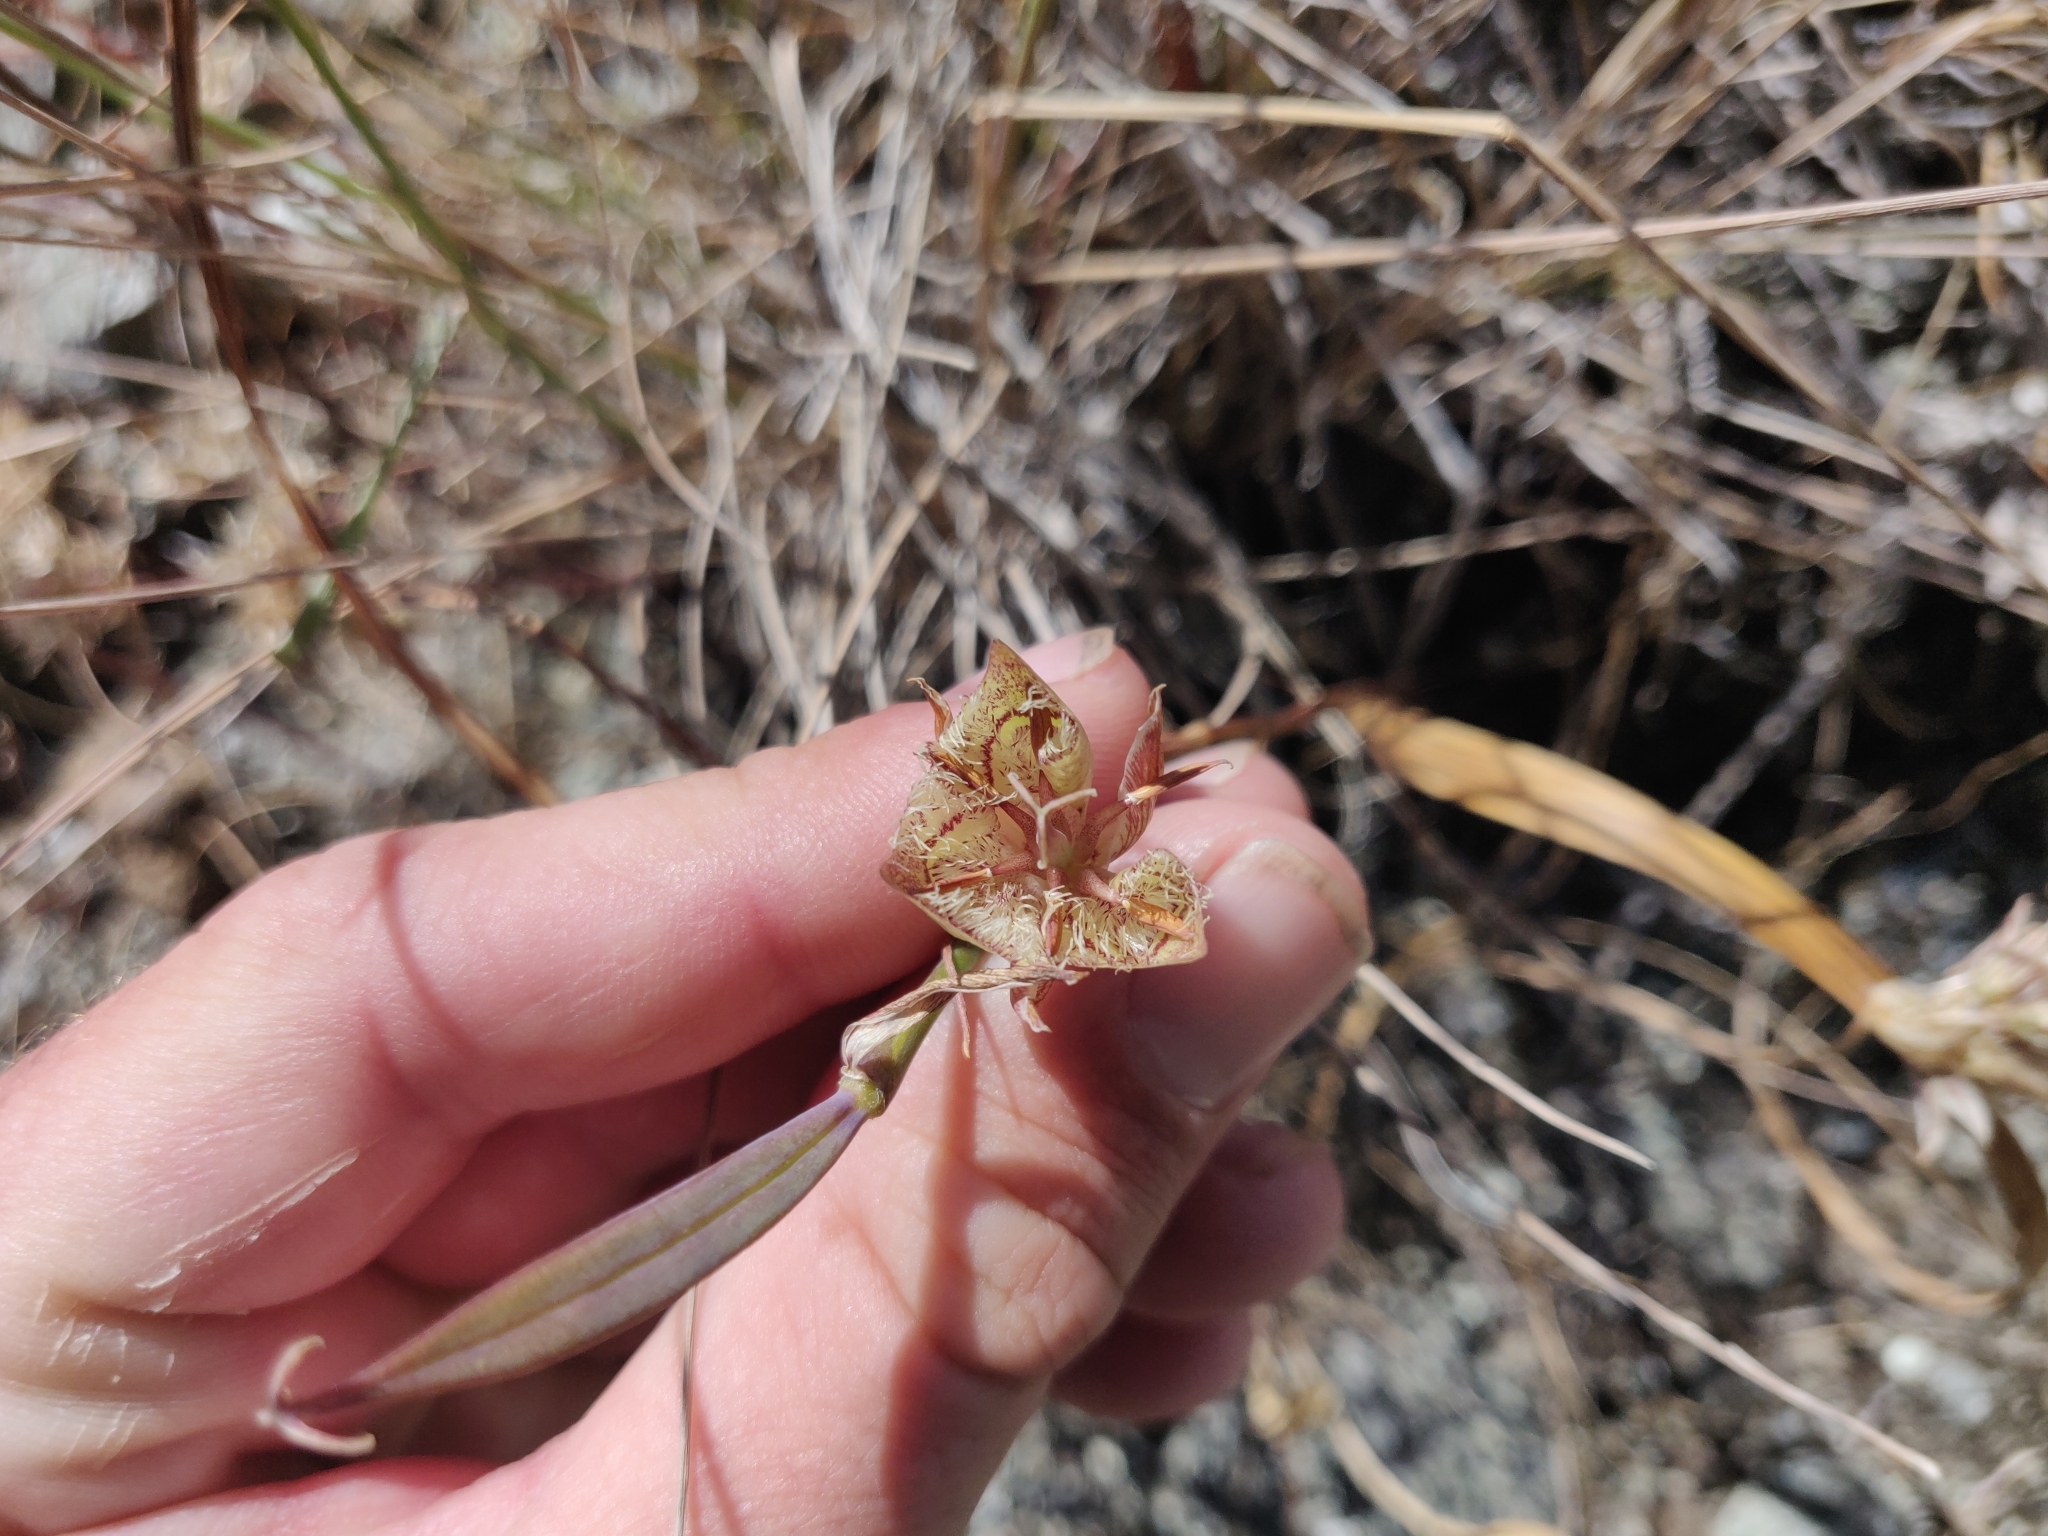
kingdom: Plantae
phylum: Tracheophyta
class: Liliopsida
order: Liliales
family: Liliaceae
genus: Calochortus
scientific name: Calochortus tiburonensis
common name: Tiburon mariposa-lily
